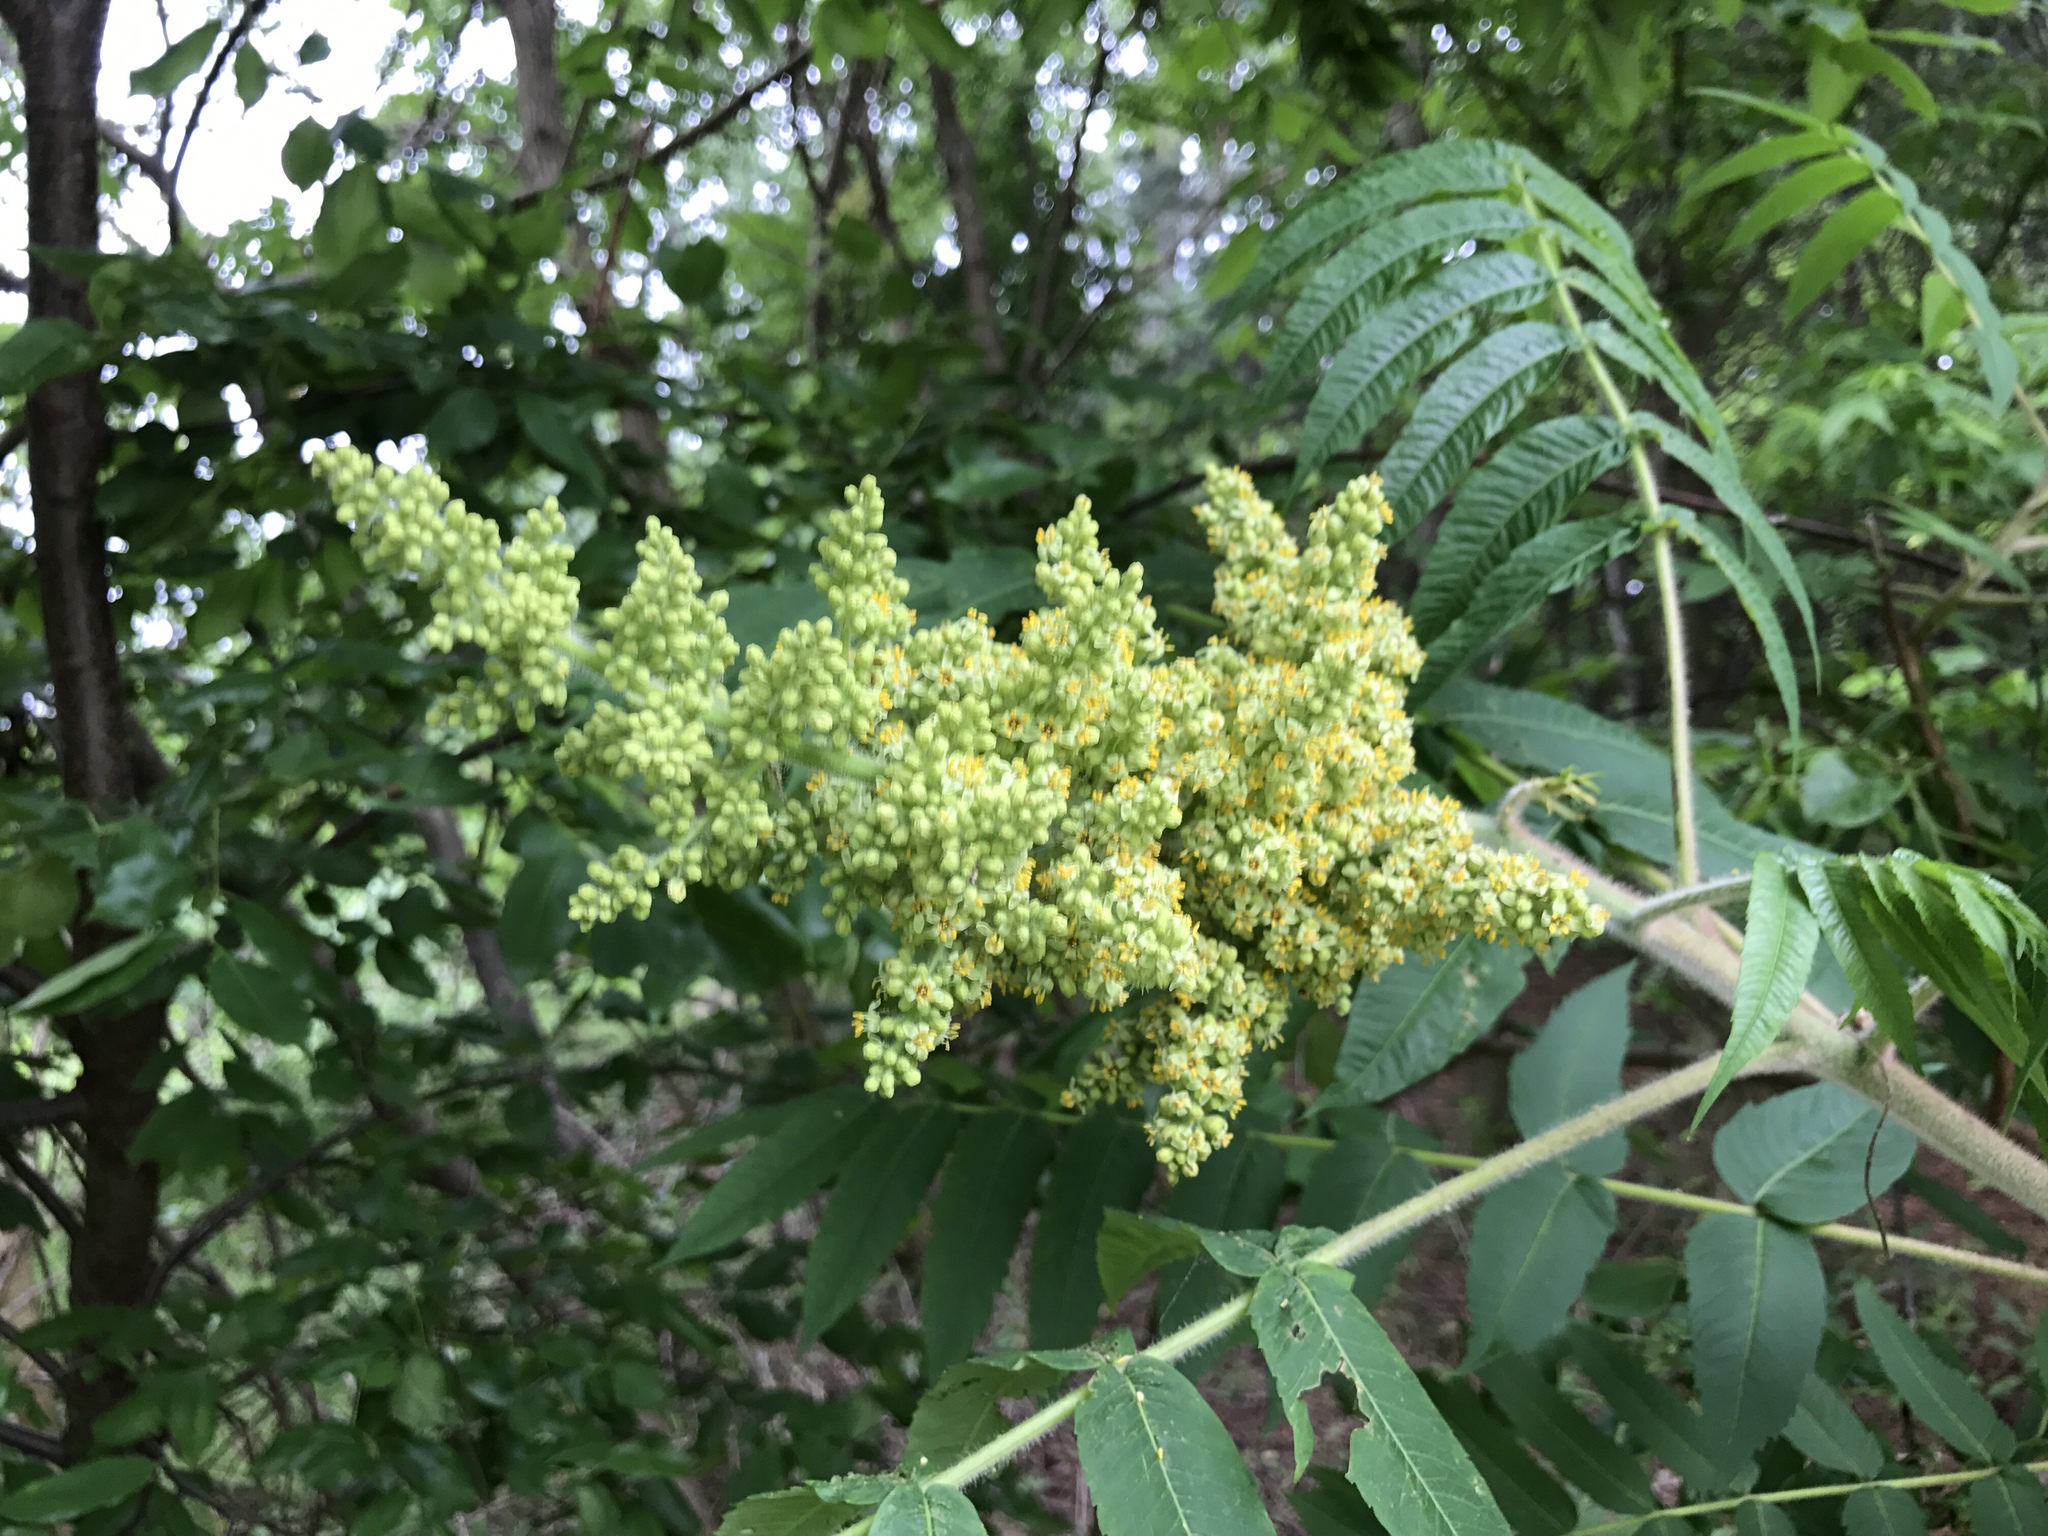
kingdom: Plantae
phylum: Tracheophyta
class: Magnoliopsida
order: Sapindales
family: Anacardiaceae
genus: Rhus
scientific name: Rhus typhina
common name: Staghorn sumac
